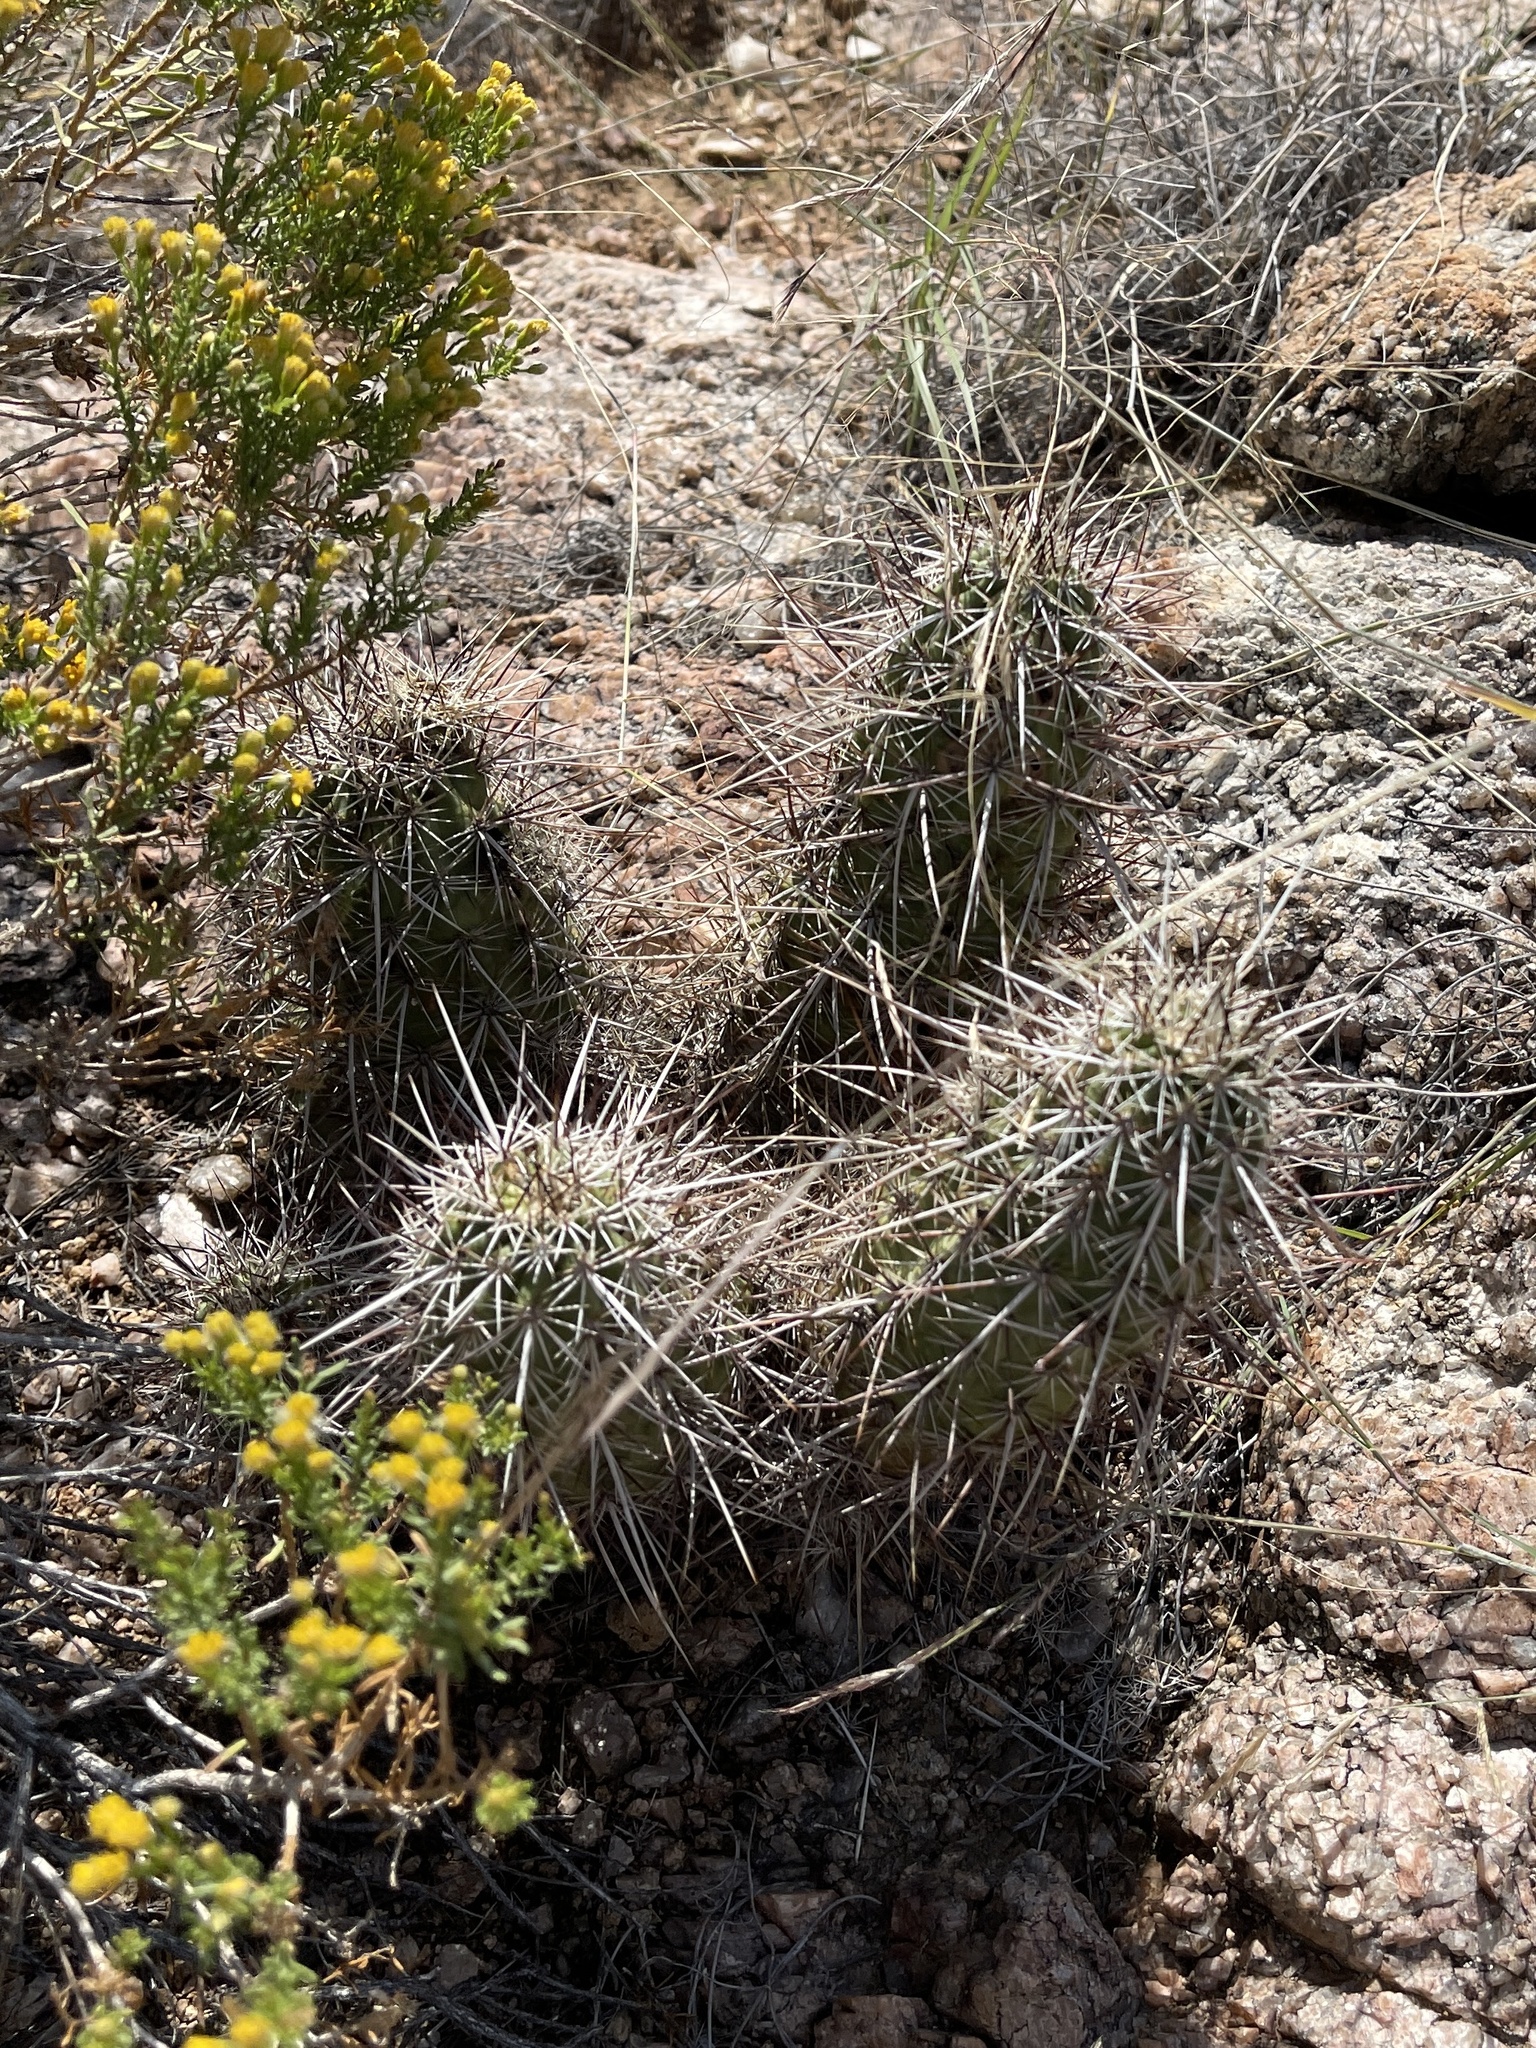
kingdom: Plantae
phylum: Tracheophyta
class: Magnoliopsida
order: Caryophyllales
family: Cactaceae
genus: Echinocereus
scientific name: Echinocereus engelmannii
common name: Engelmann's hedgehog cactus
